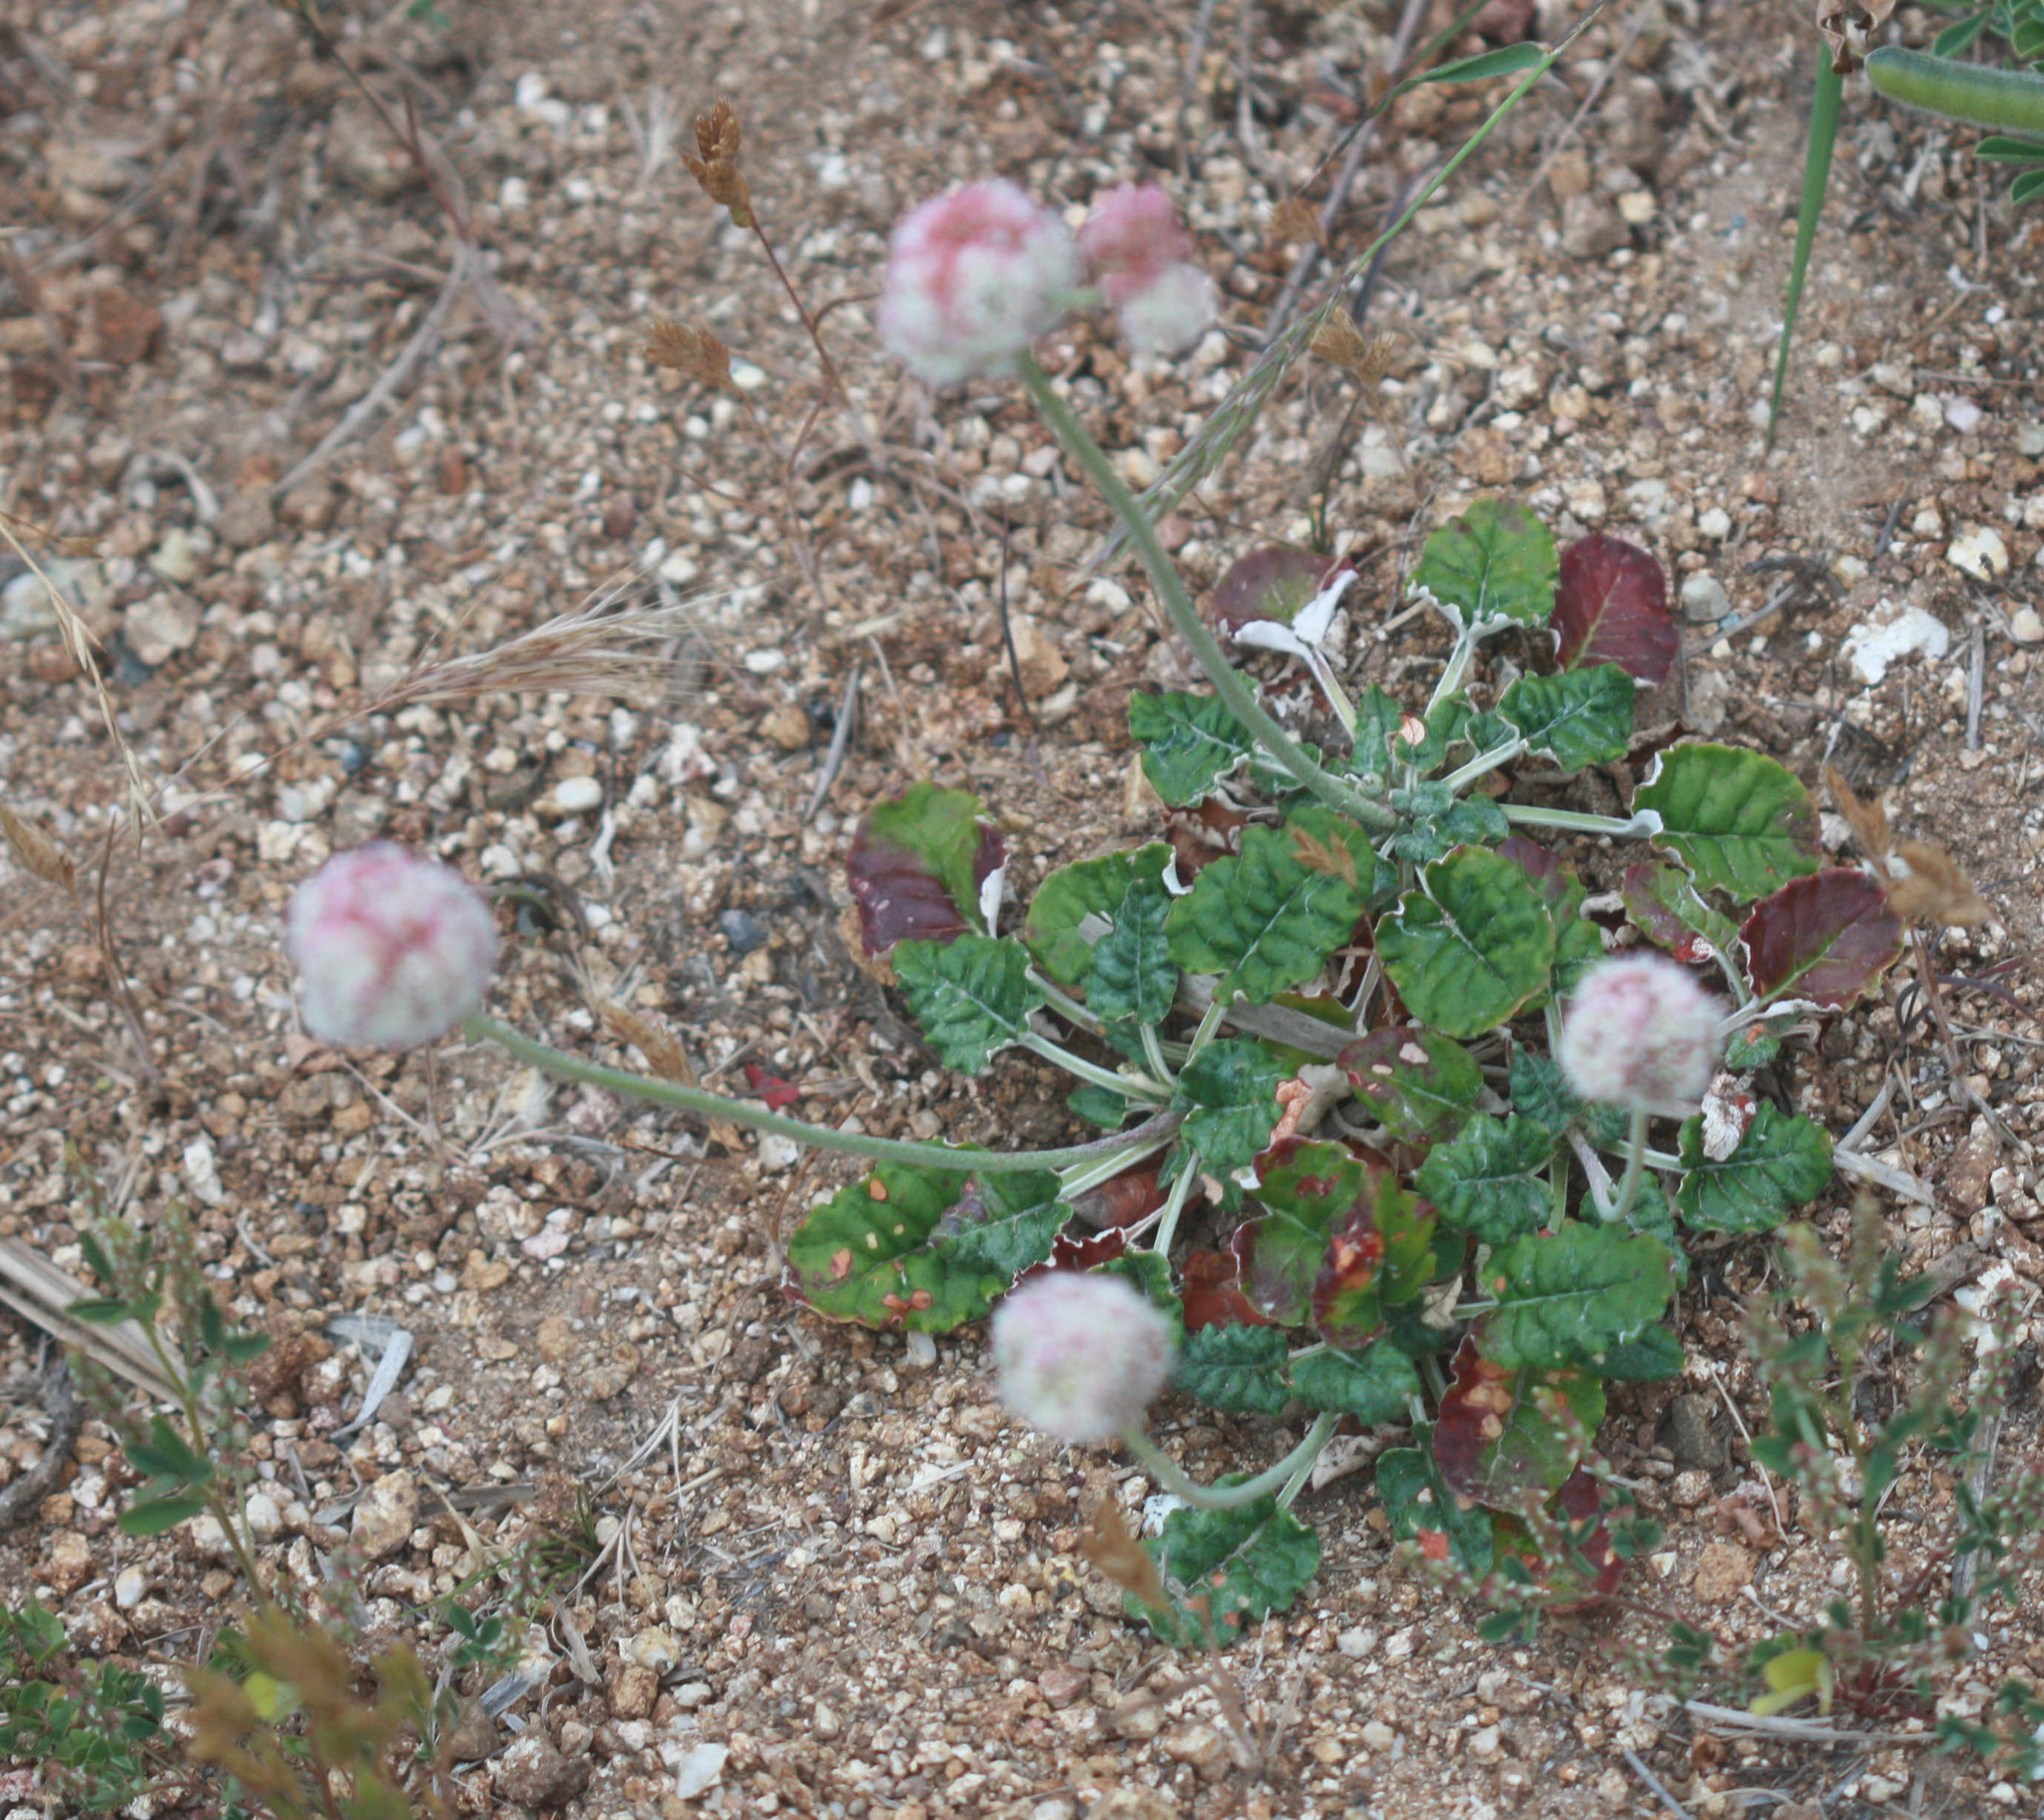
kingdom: Plantae
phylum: Tracheophyta
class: Magnoliopsida
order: Caryophyllales
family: Polygonaceae
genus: Eriogonum
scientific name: Eriogonum latifolium
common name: Seaside wild buckwheat
